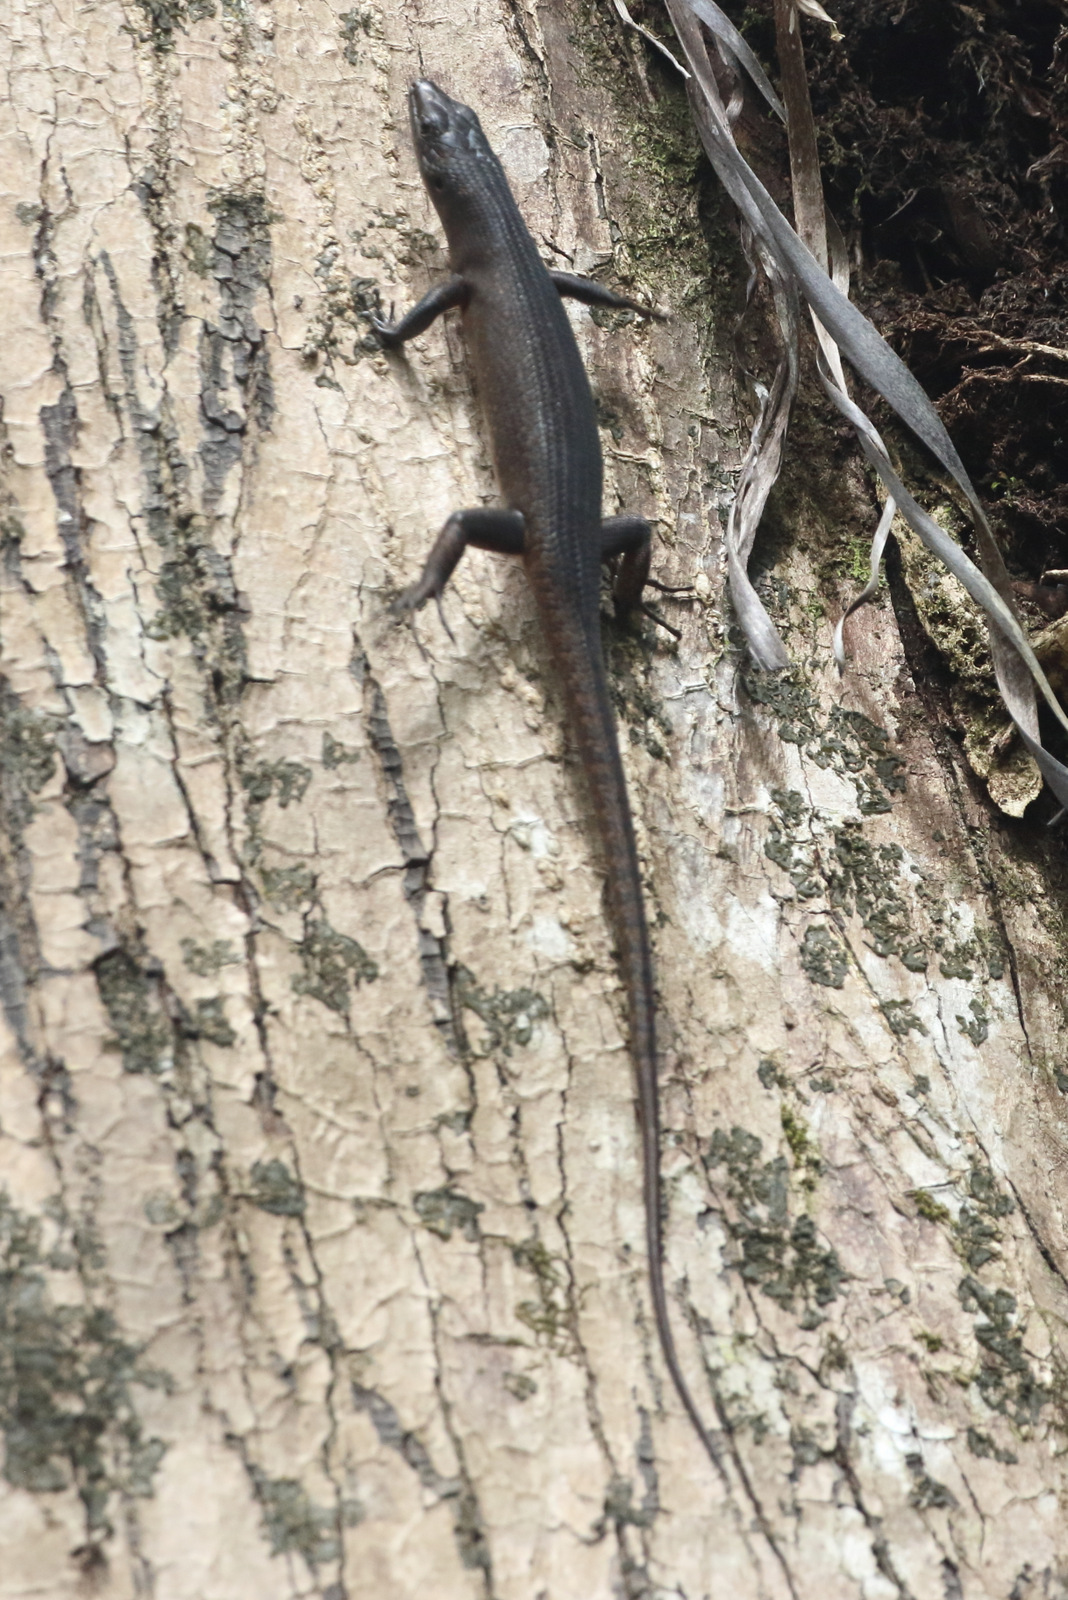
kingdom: Animalia
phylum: Chordata
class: Squamata
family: Scincidae
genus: Emoia
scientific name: Emoia nigra
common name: Black emo skink
